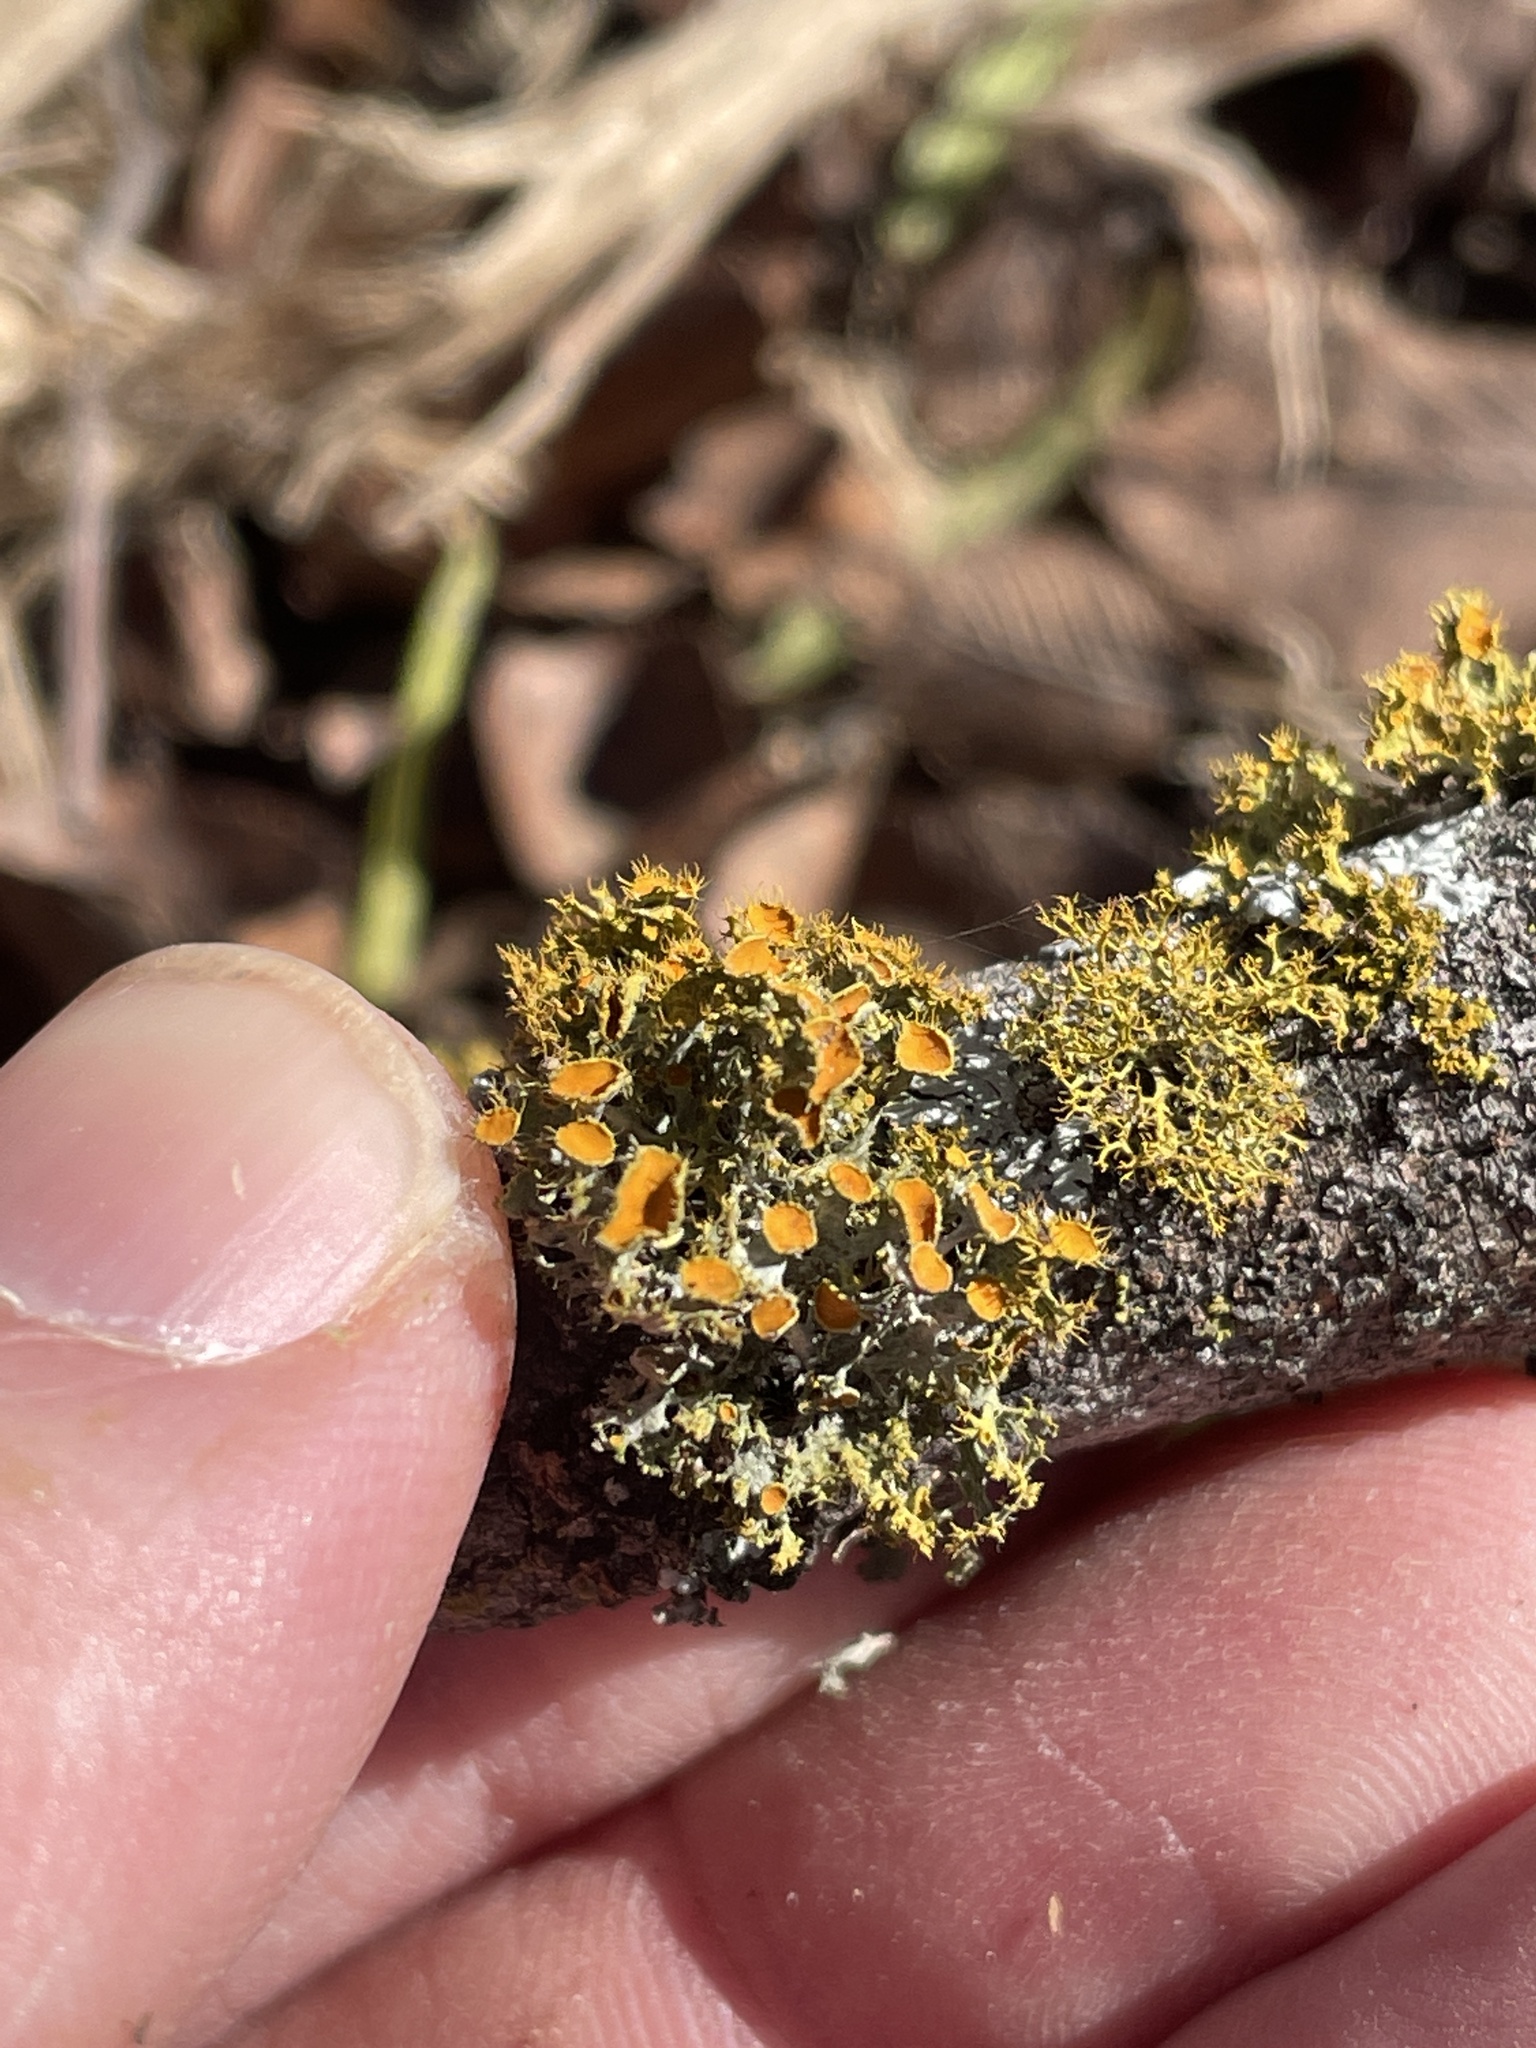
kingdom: Fungi
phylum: Ascomycota
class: Lecanoromycetes
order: Teloschistales
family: Teloschistaceae
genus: Niorma
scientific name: Niorma chrysophthalma
